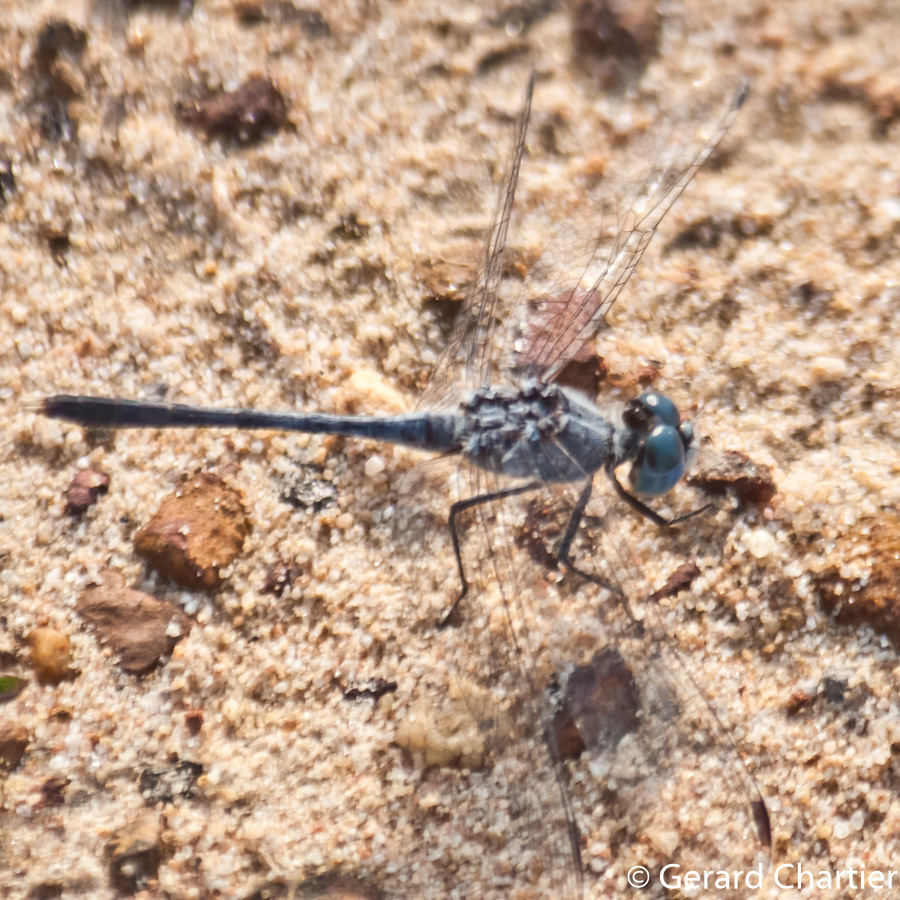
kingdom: Animalia
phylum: Arthropoda
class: Insecta
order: Odonata
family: Libellulidae
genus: Diplacodes
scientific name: Diplacodes trivialis
